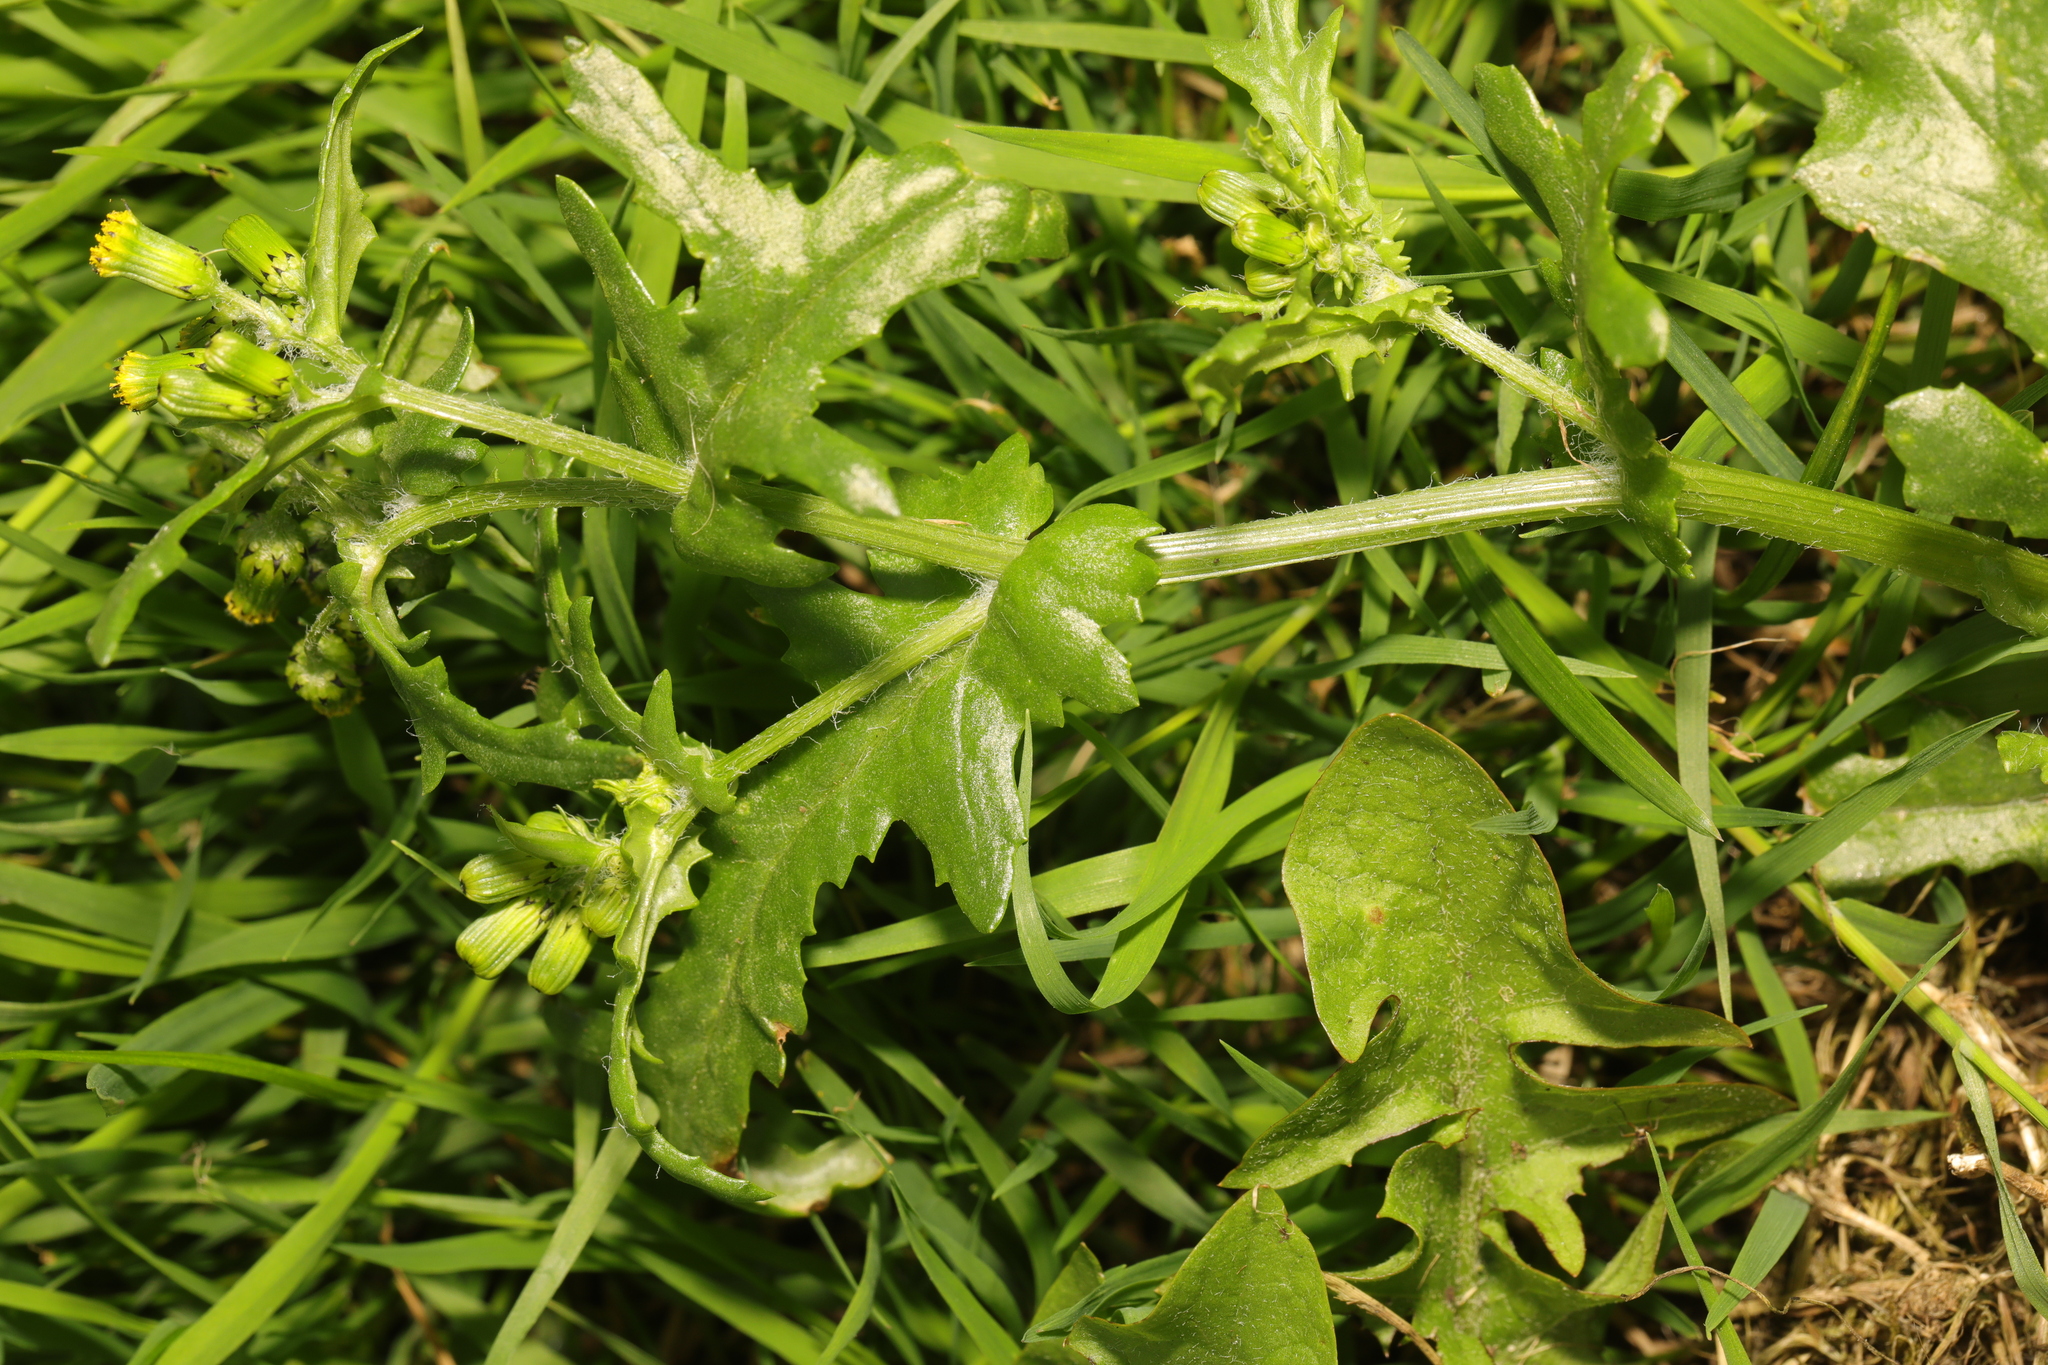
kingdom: Plantae
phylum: Tracheophyta
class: Magnoliopsida
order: Asterales
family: Asteraceae
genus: Senecio
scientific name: Senecio vulgaris
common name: Old-man-in-the-spring
